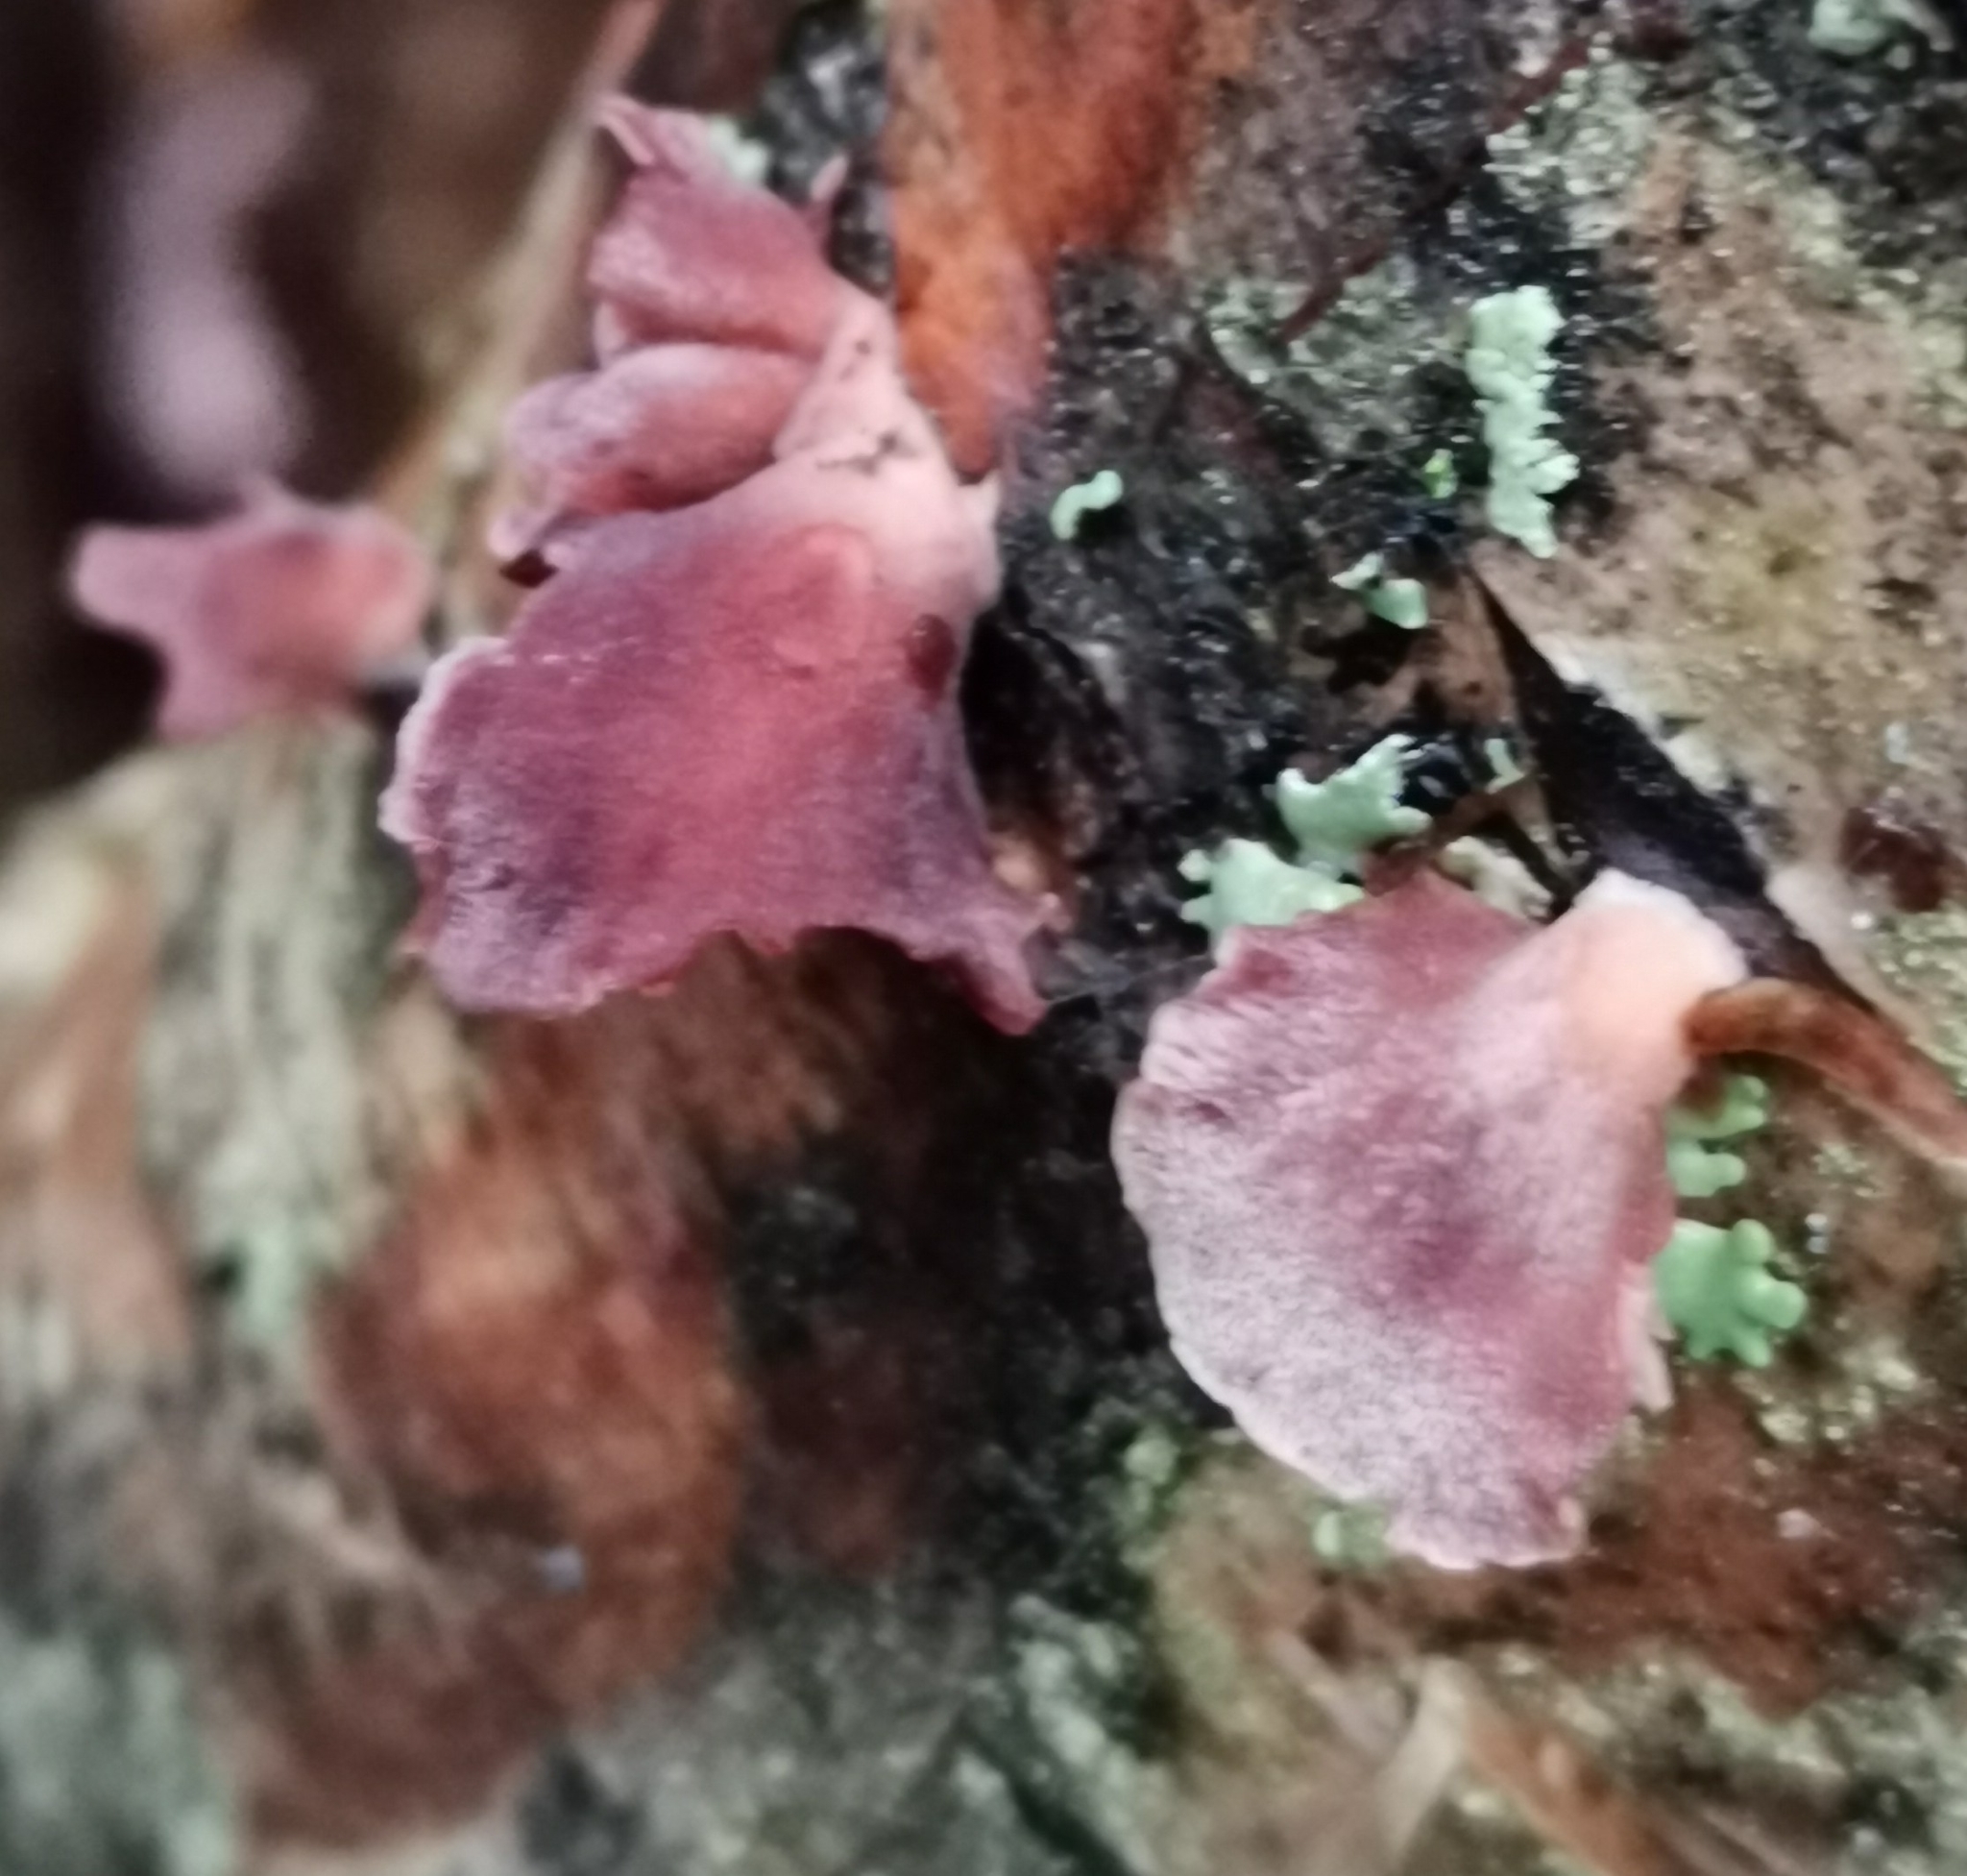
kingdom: Fungi
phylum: Basidiomycota
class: Agaricomycetes
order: Agaricales
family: Mycenaceae
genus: Panellus
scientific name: Panellus ringens
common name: Winter oysterling
